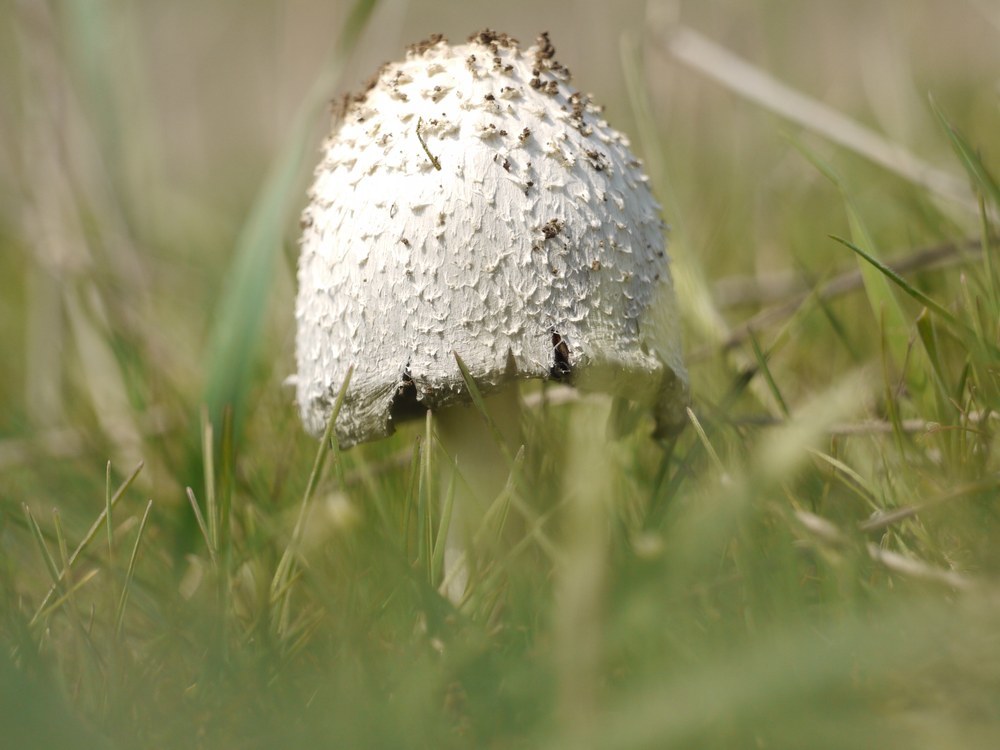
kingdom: Fungi
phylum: Basidiomycota
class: Agaricomycetes
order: Agaricales
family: Agaricaceae
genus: Coprinus
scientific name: Coprinus comatus
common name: Lawyer's wig
